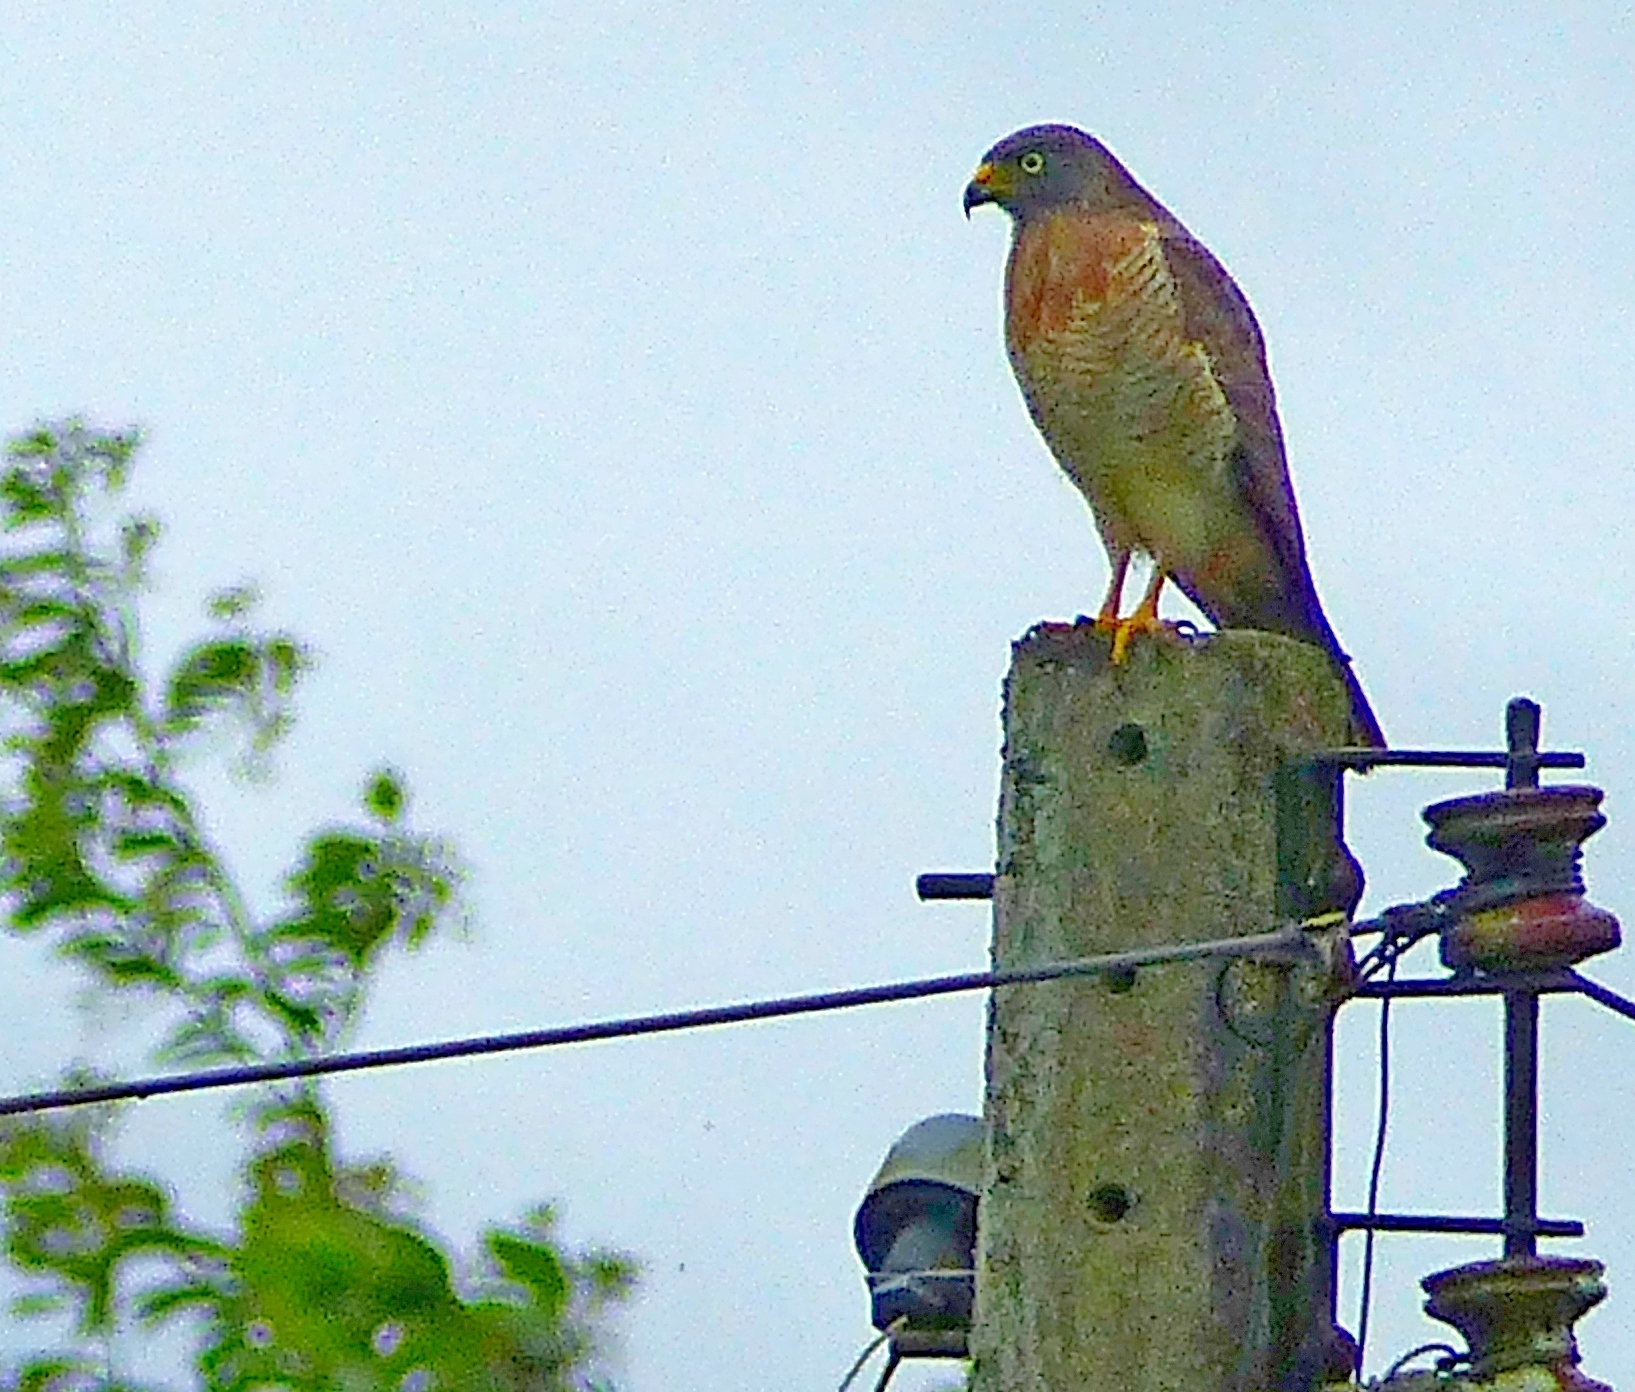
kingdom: Animalia
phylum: Chordata
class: Aves
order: Accipitriformes
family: Accipitridae
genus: Rupornis
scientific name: Rupornis magnirostris
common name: Roadside hawk
